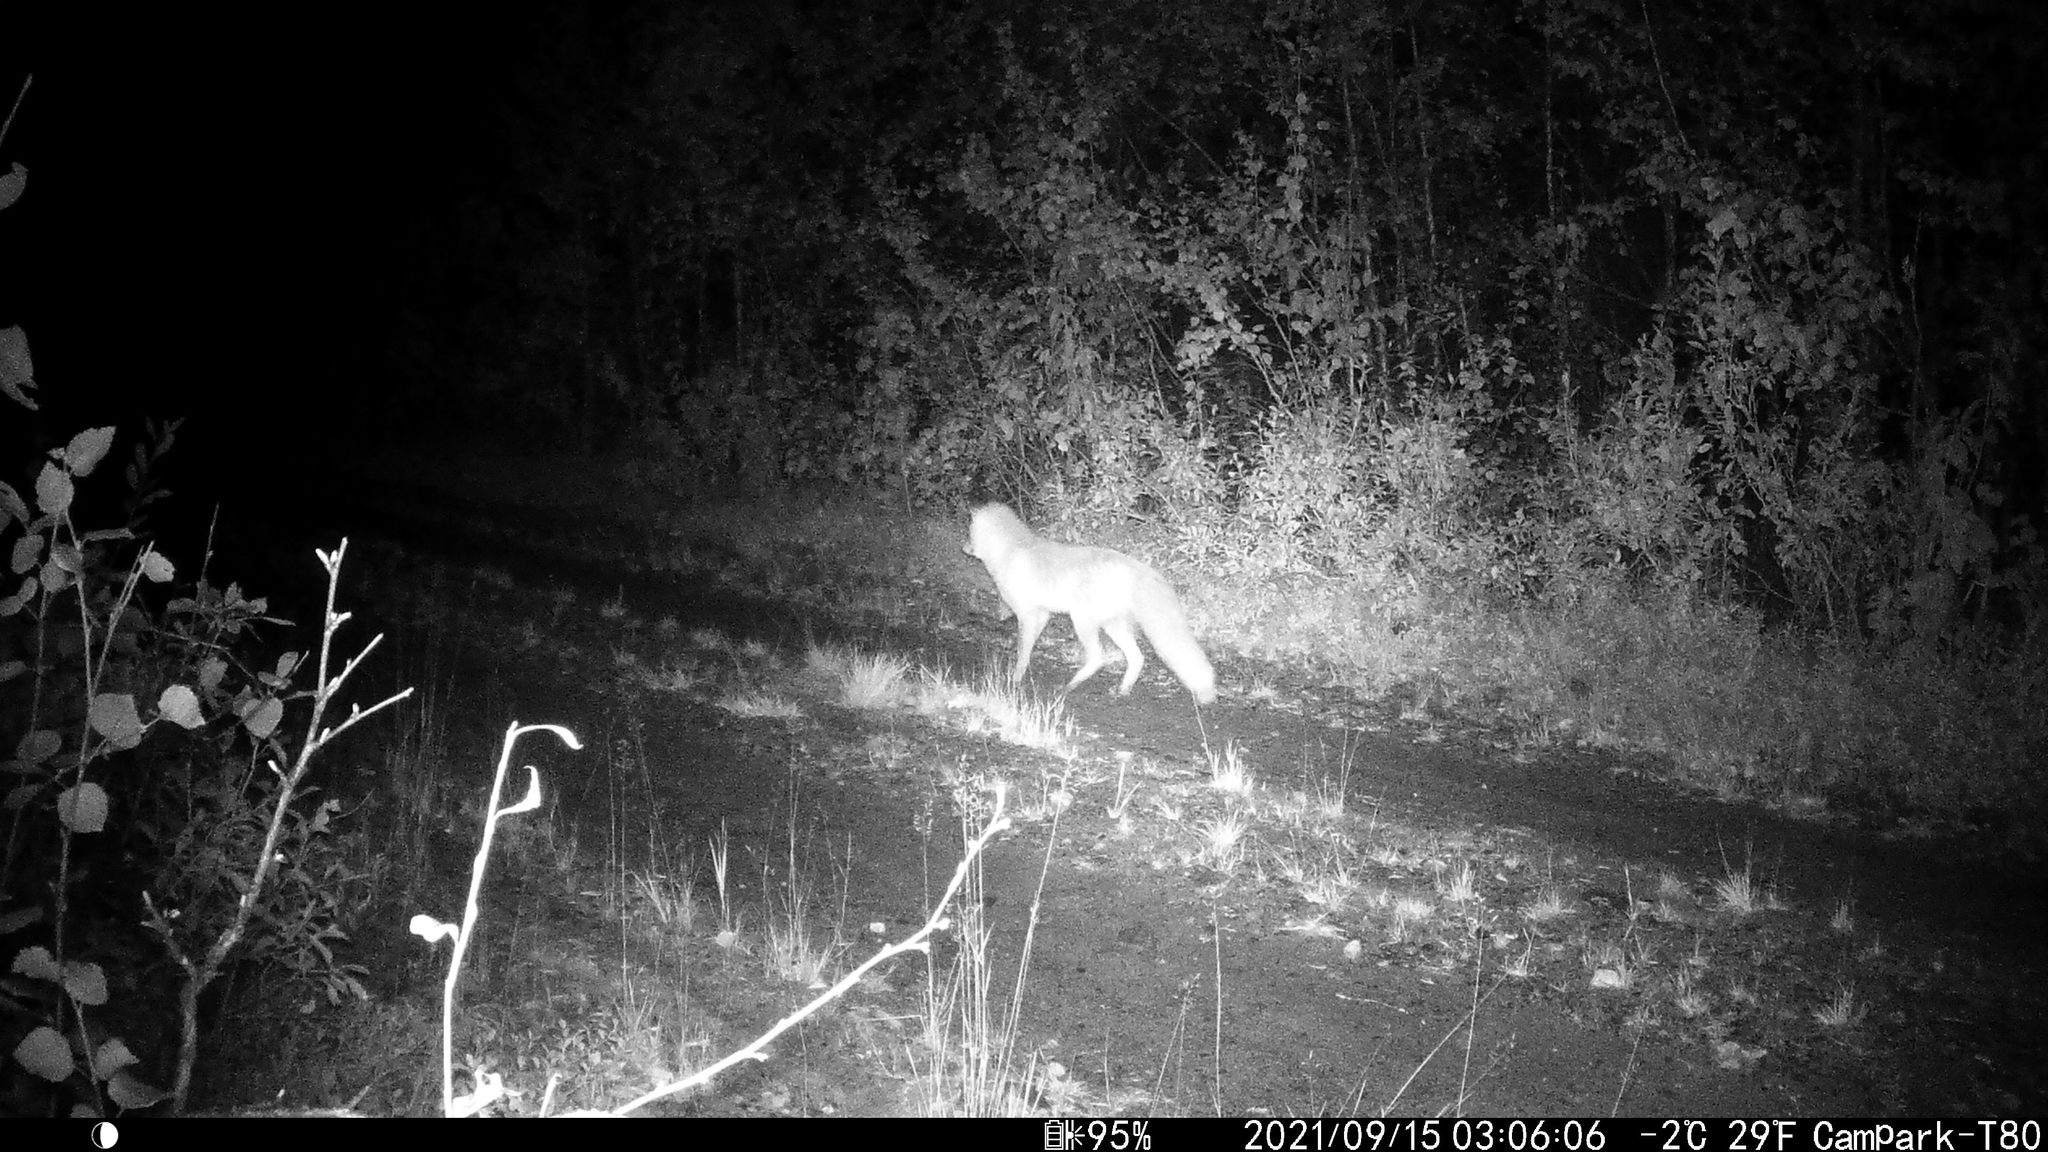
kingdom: Animalia
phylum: Chordata
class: Mammalia
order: Carnivora
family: Canidae
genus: Vulpes
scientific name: Vulpes vulpes
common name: Red fox
